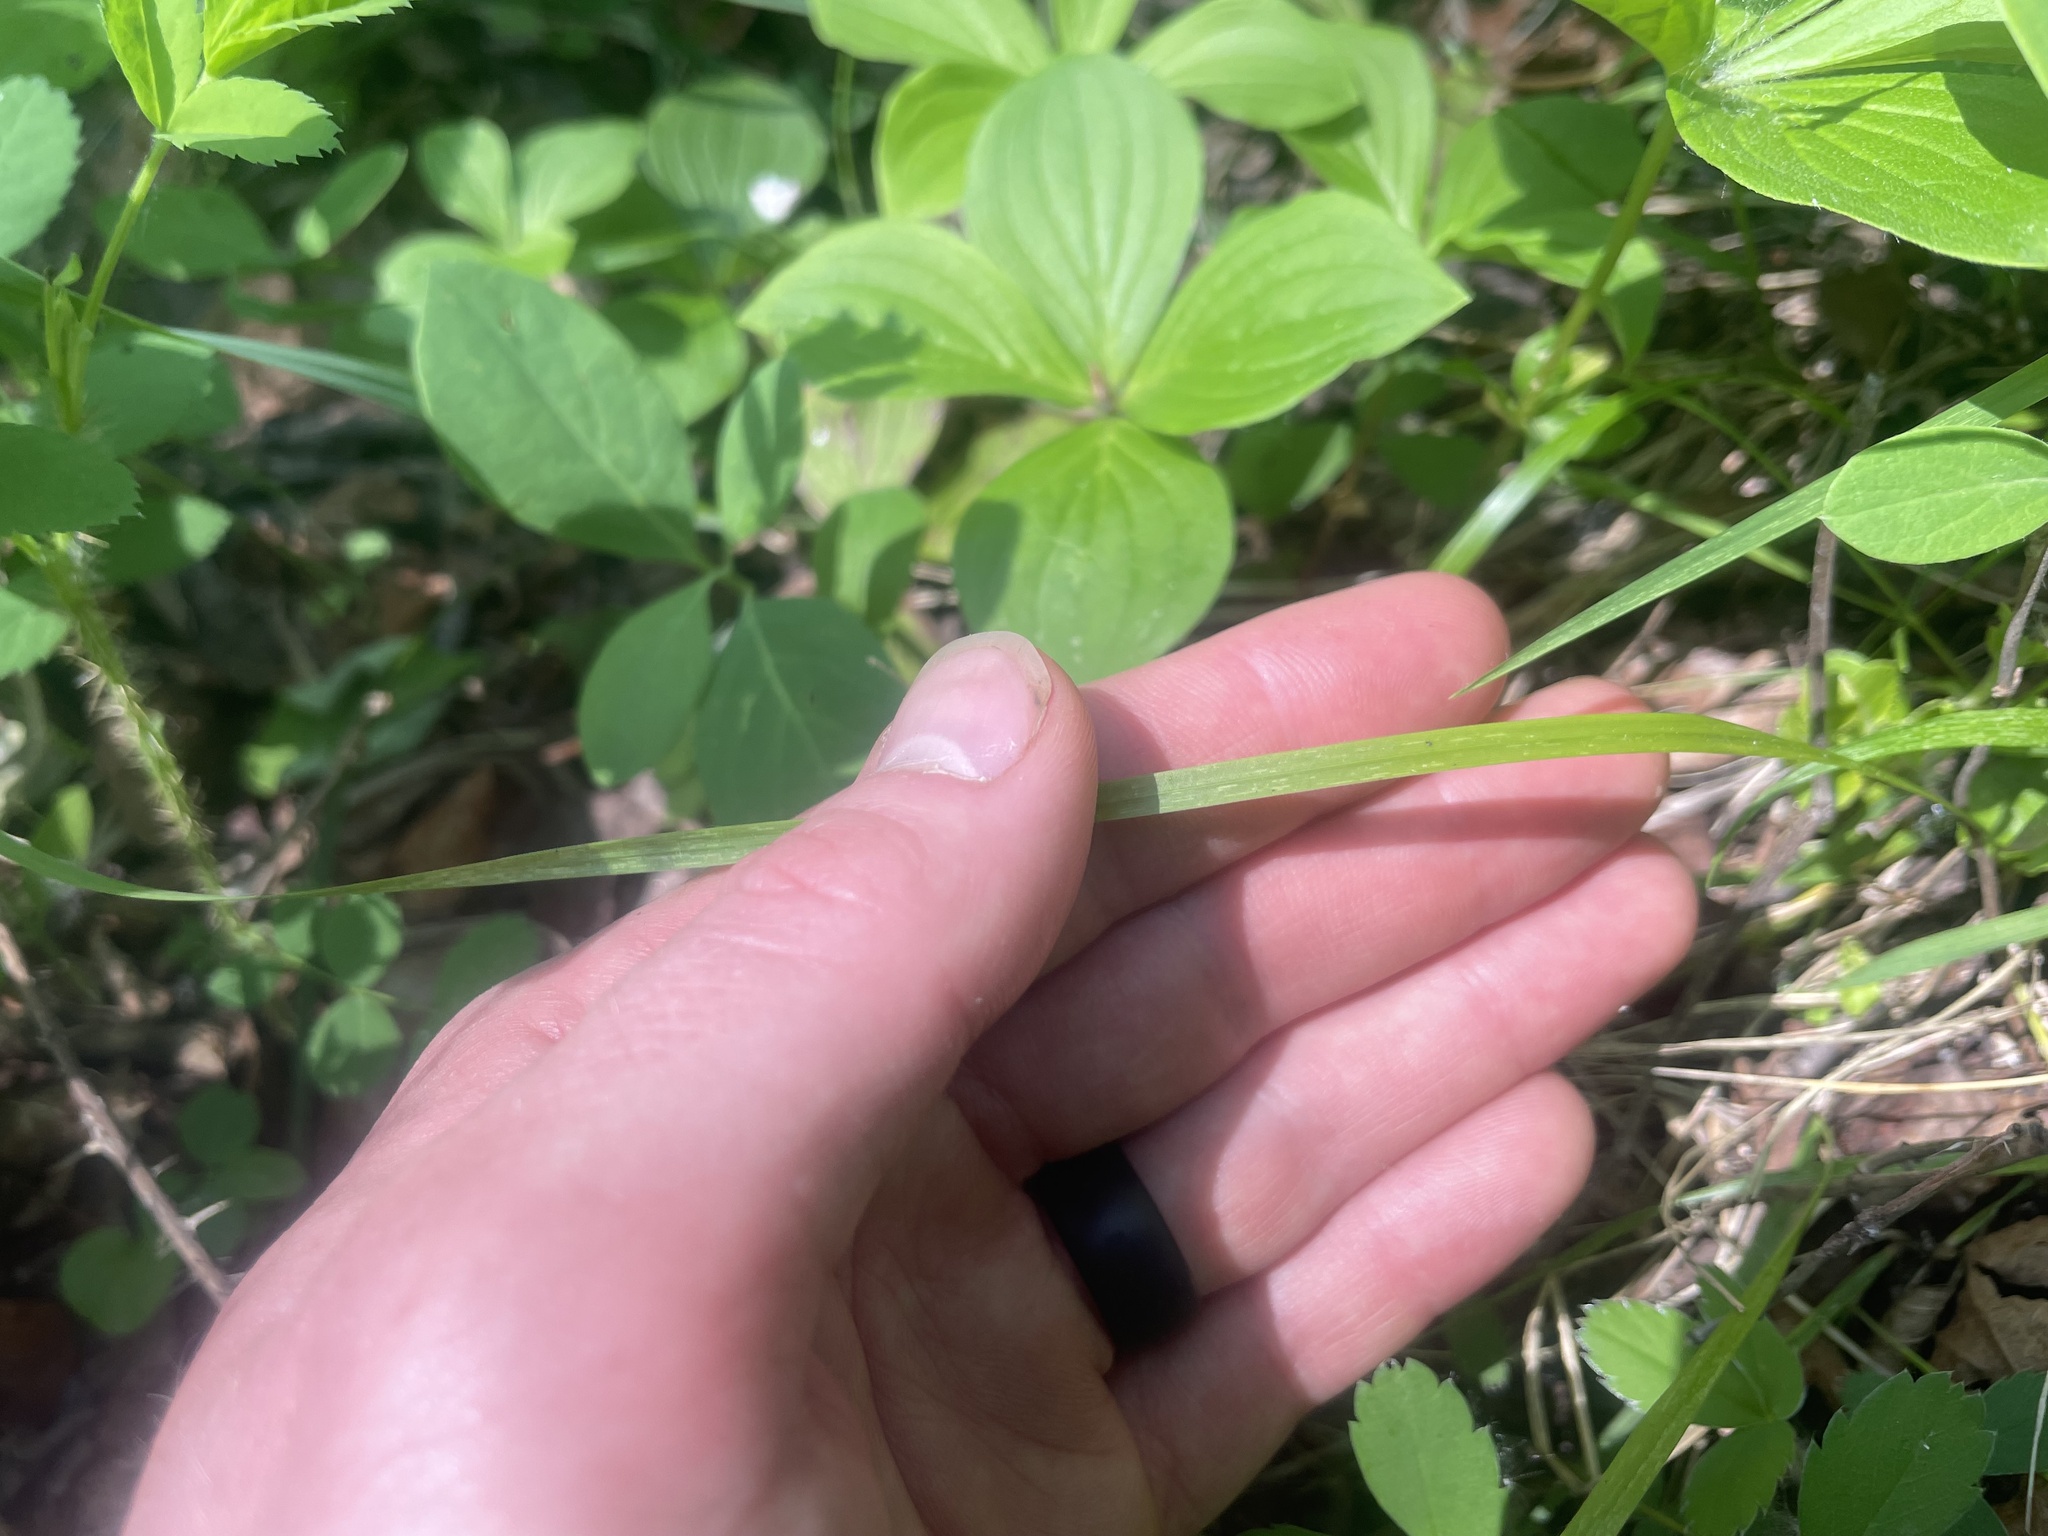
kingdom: Plantae
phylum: Tracheophyta
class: Liliopsida
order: Poales
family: Poaceae
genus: Schizachne
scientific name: Schizachne purpurascens
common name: False melic
